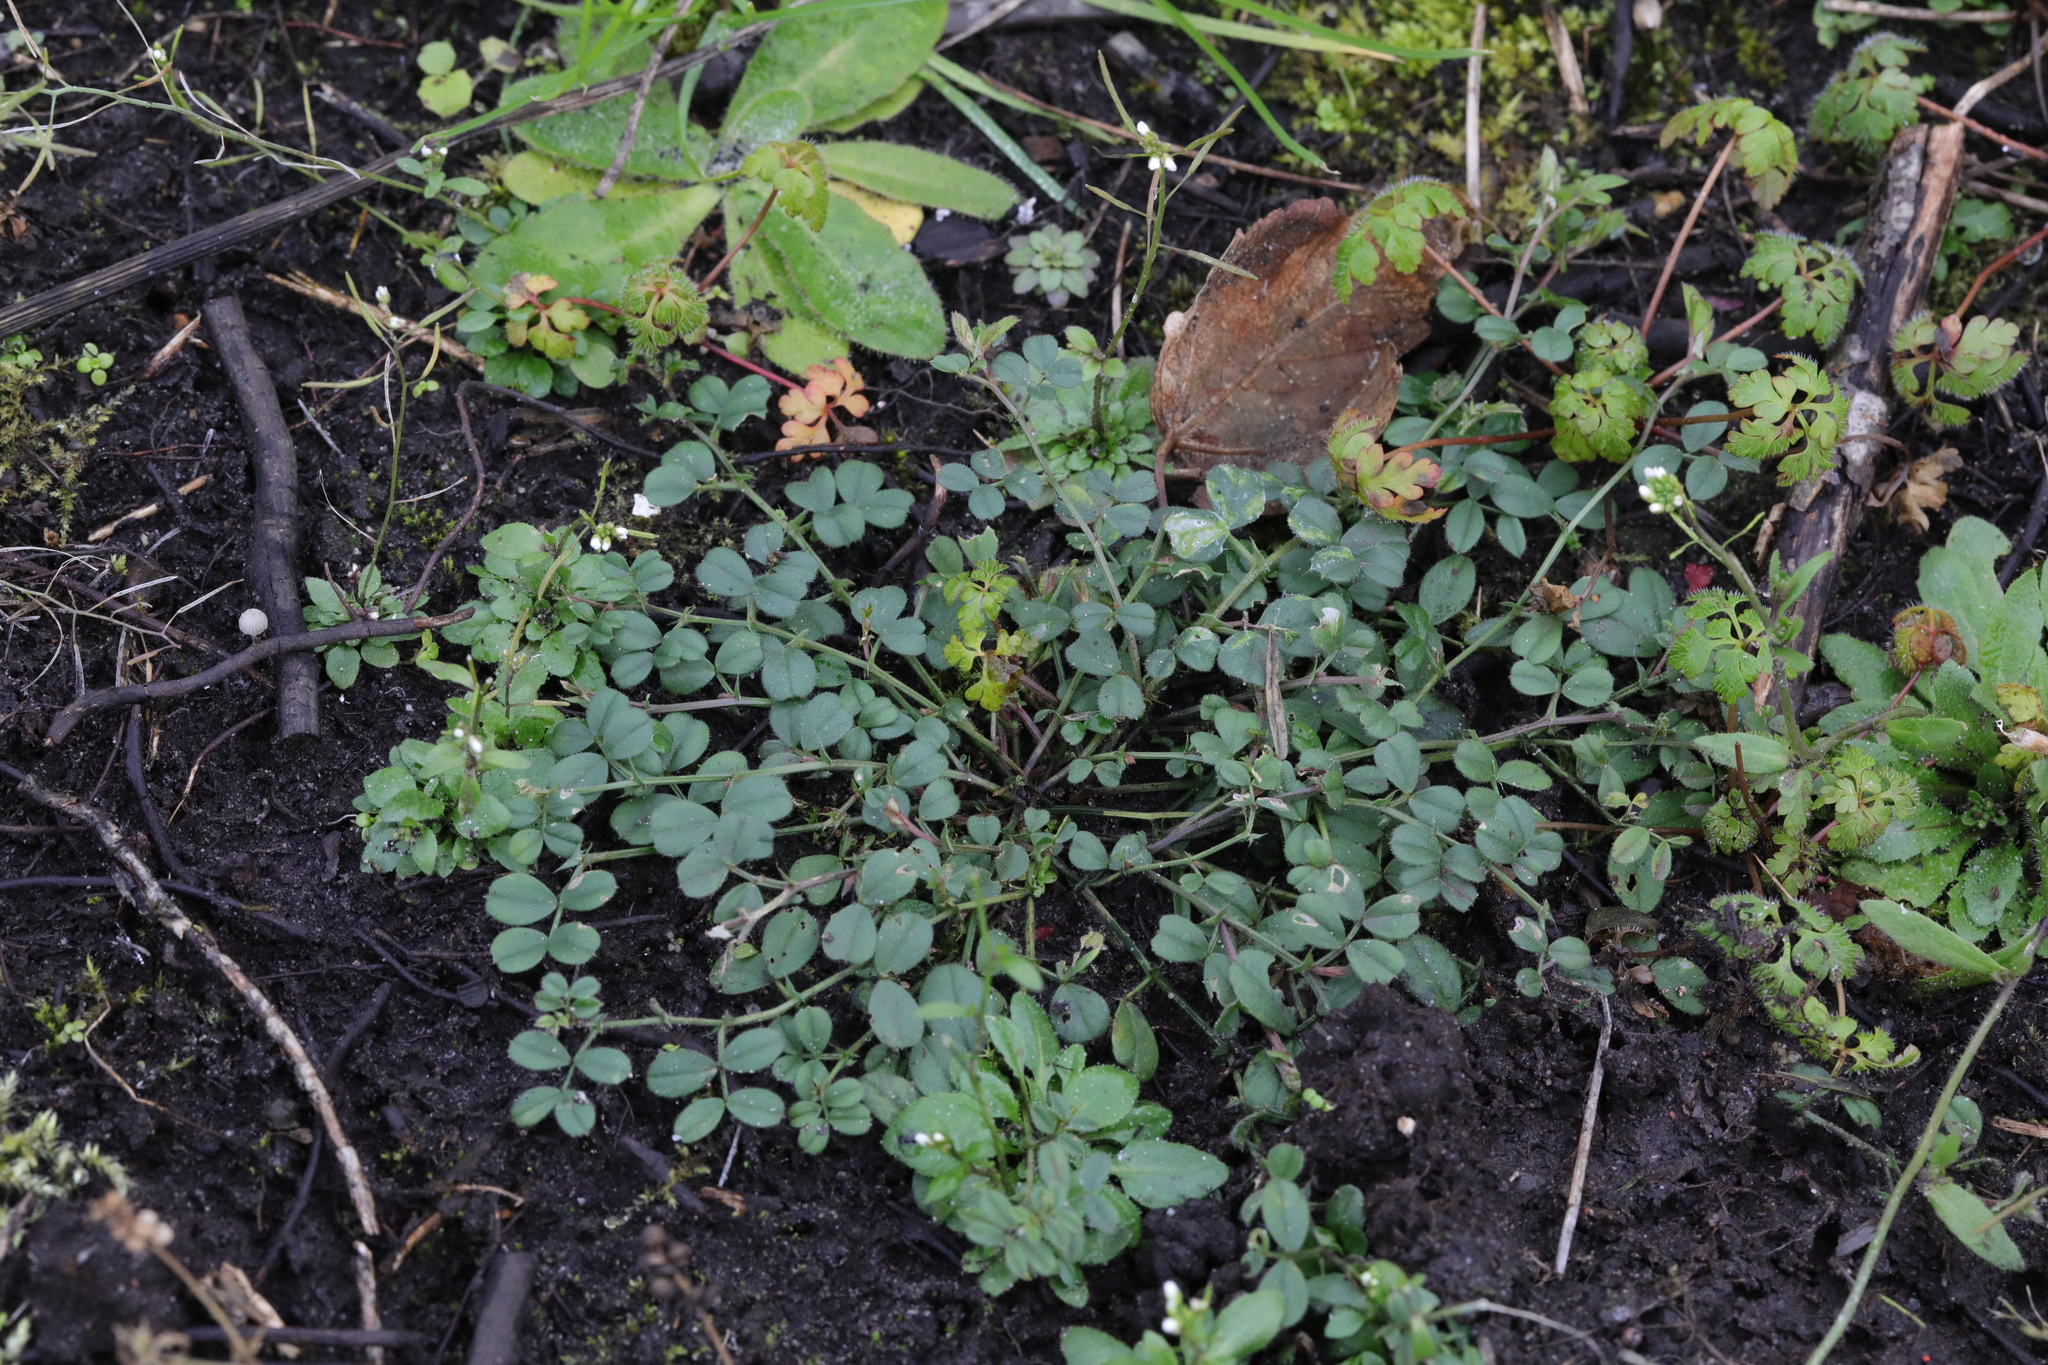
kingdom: Plantae
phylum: Tracheophyta
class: Magnoliopsida
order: Fabales
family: Fabaceae
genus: Vicia
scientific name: Vicia sativa
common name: Garden vetch
